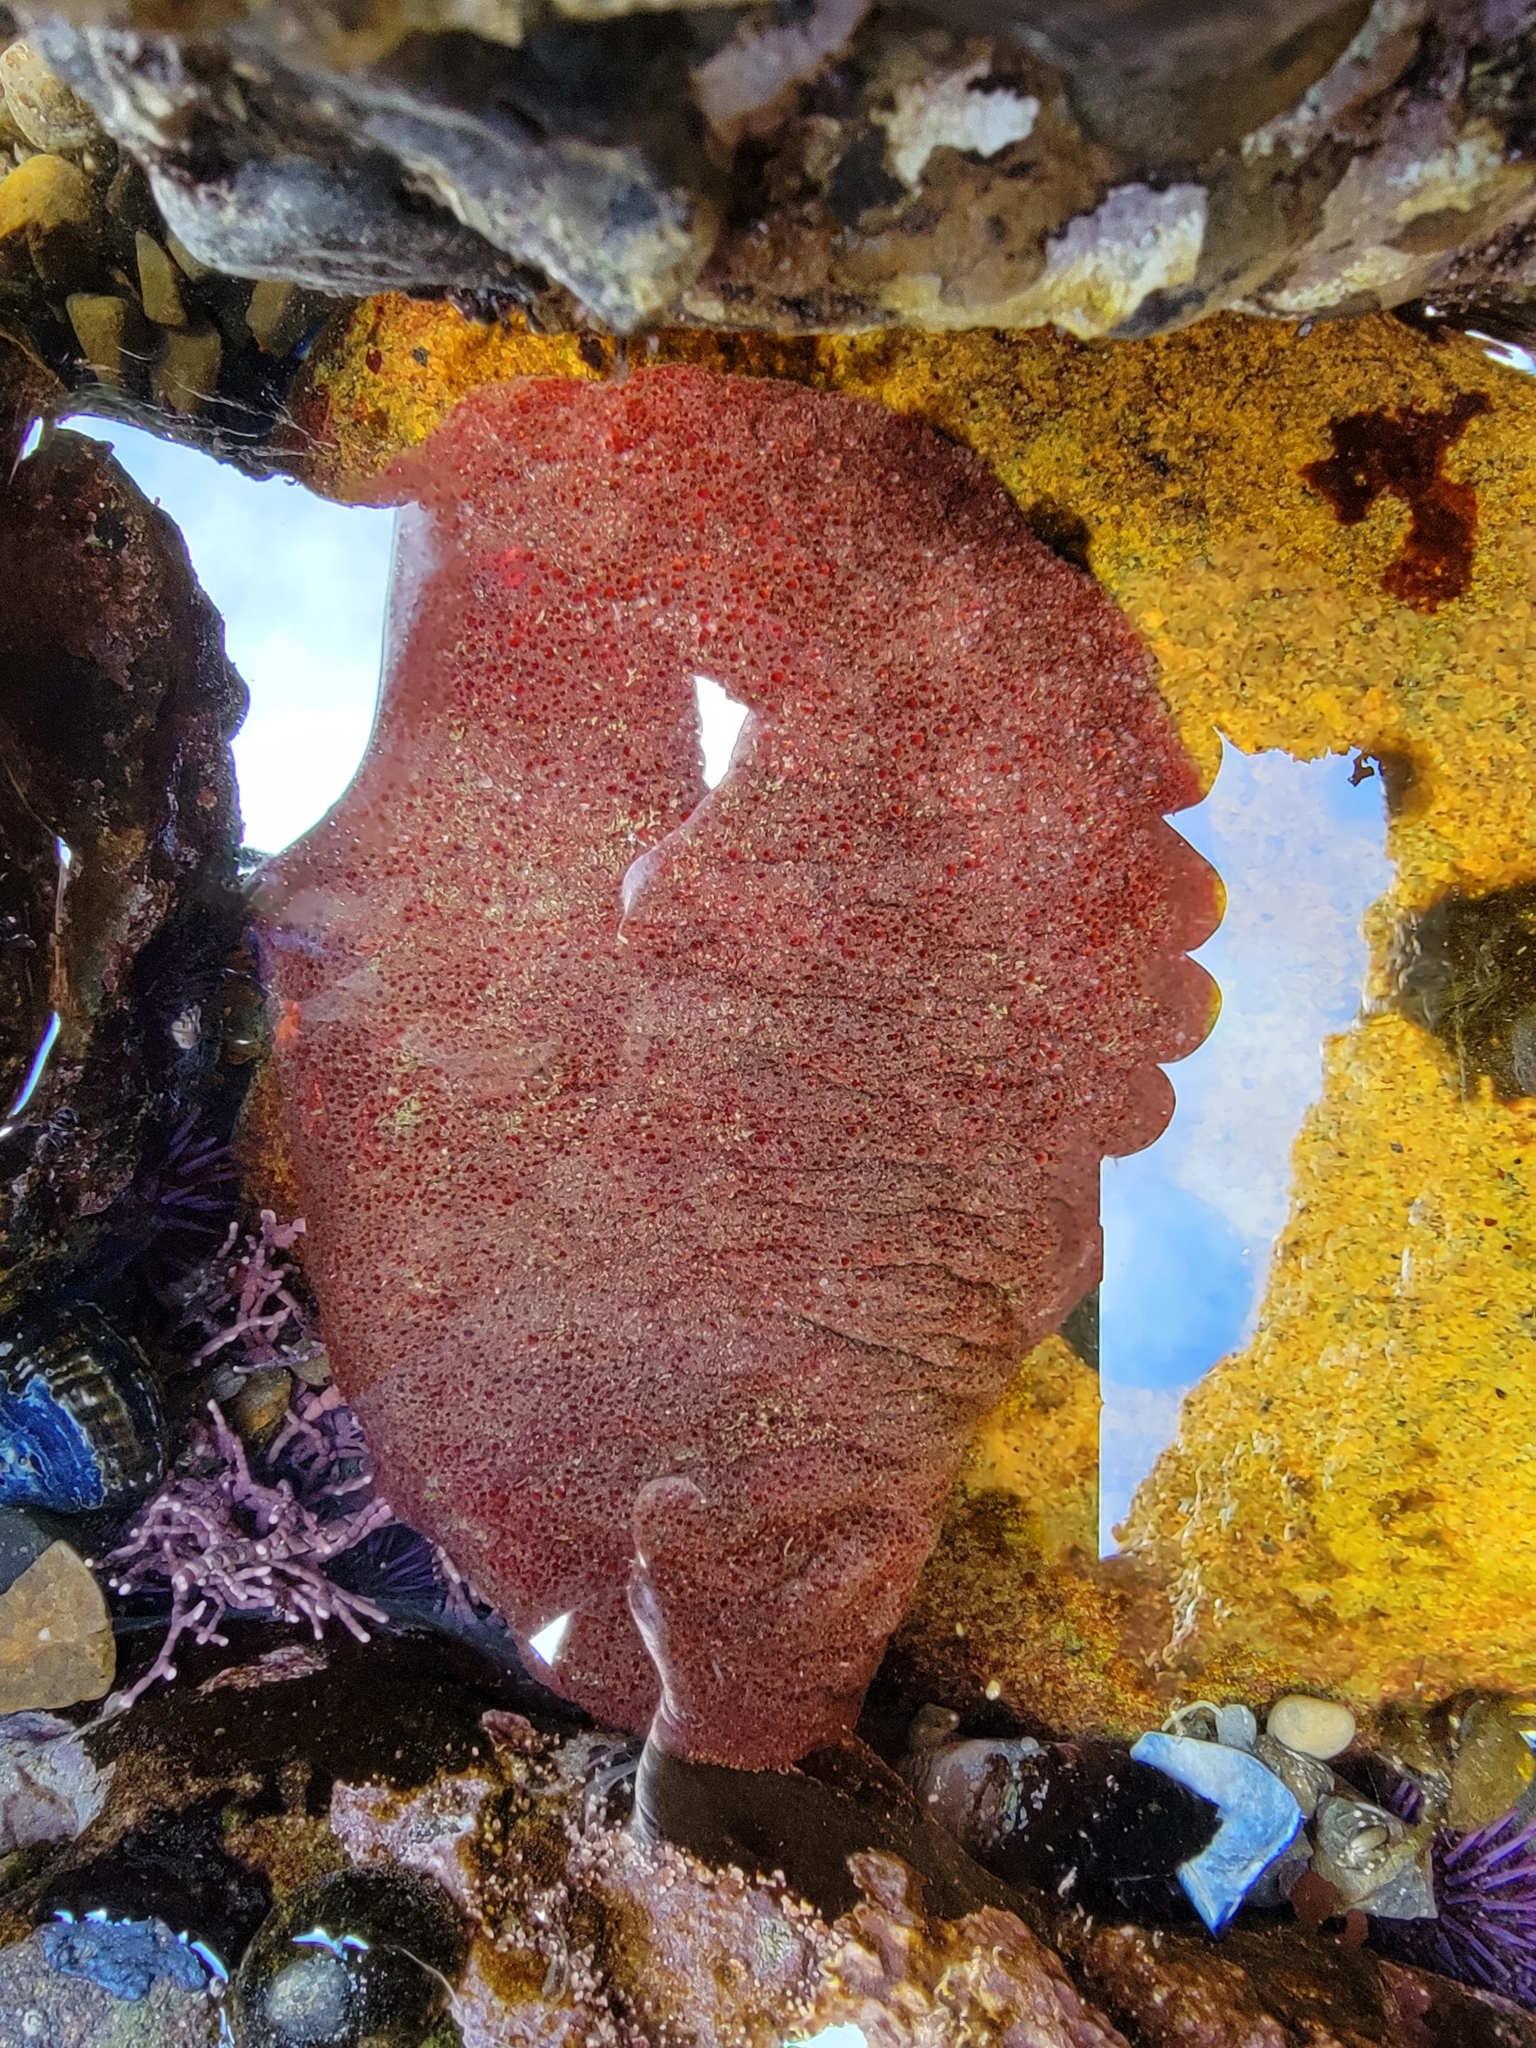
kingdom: Animalia
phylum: Mollusca
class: Polyplacophora
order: Chitonida
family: Acanthochitonidae
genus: Cryptochiton
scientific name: Cryptochiton stelleri
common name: Giant pacific chiton
